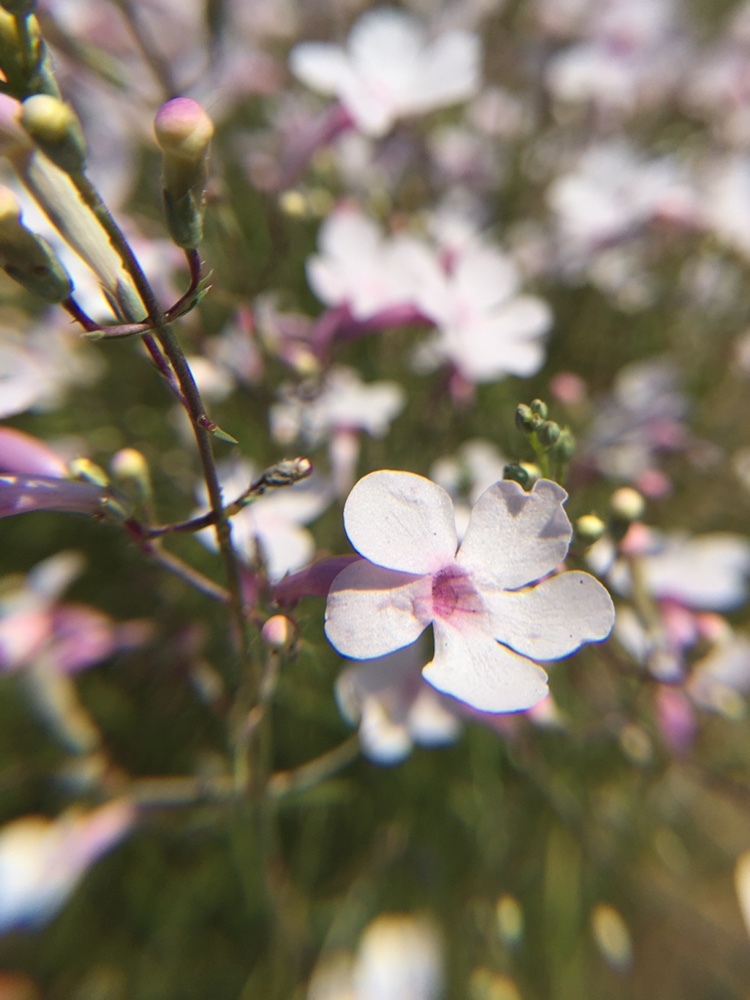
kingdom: Plantae
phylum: Tracheophyta
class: Magnoliopsida
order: Lamiales
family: Plantaginaceae
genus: Penstemon
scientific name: Penstemon ambiguus
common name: Bush penstemon
